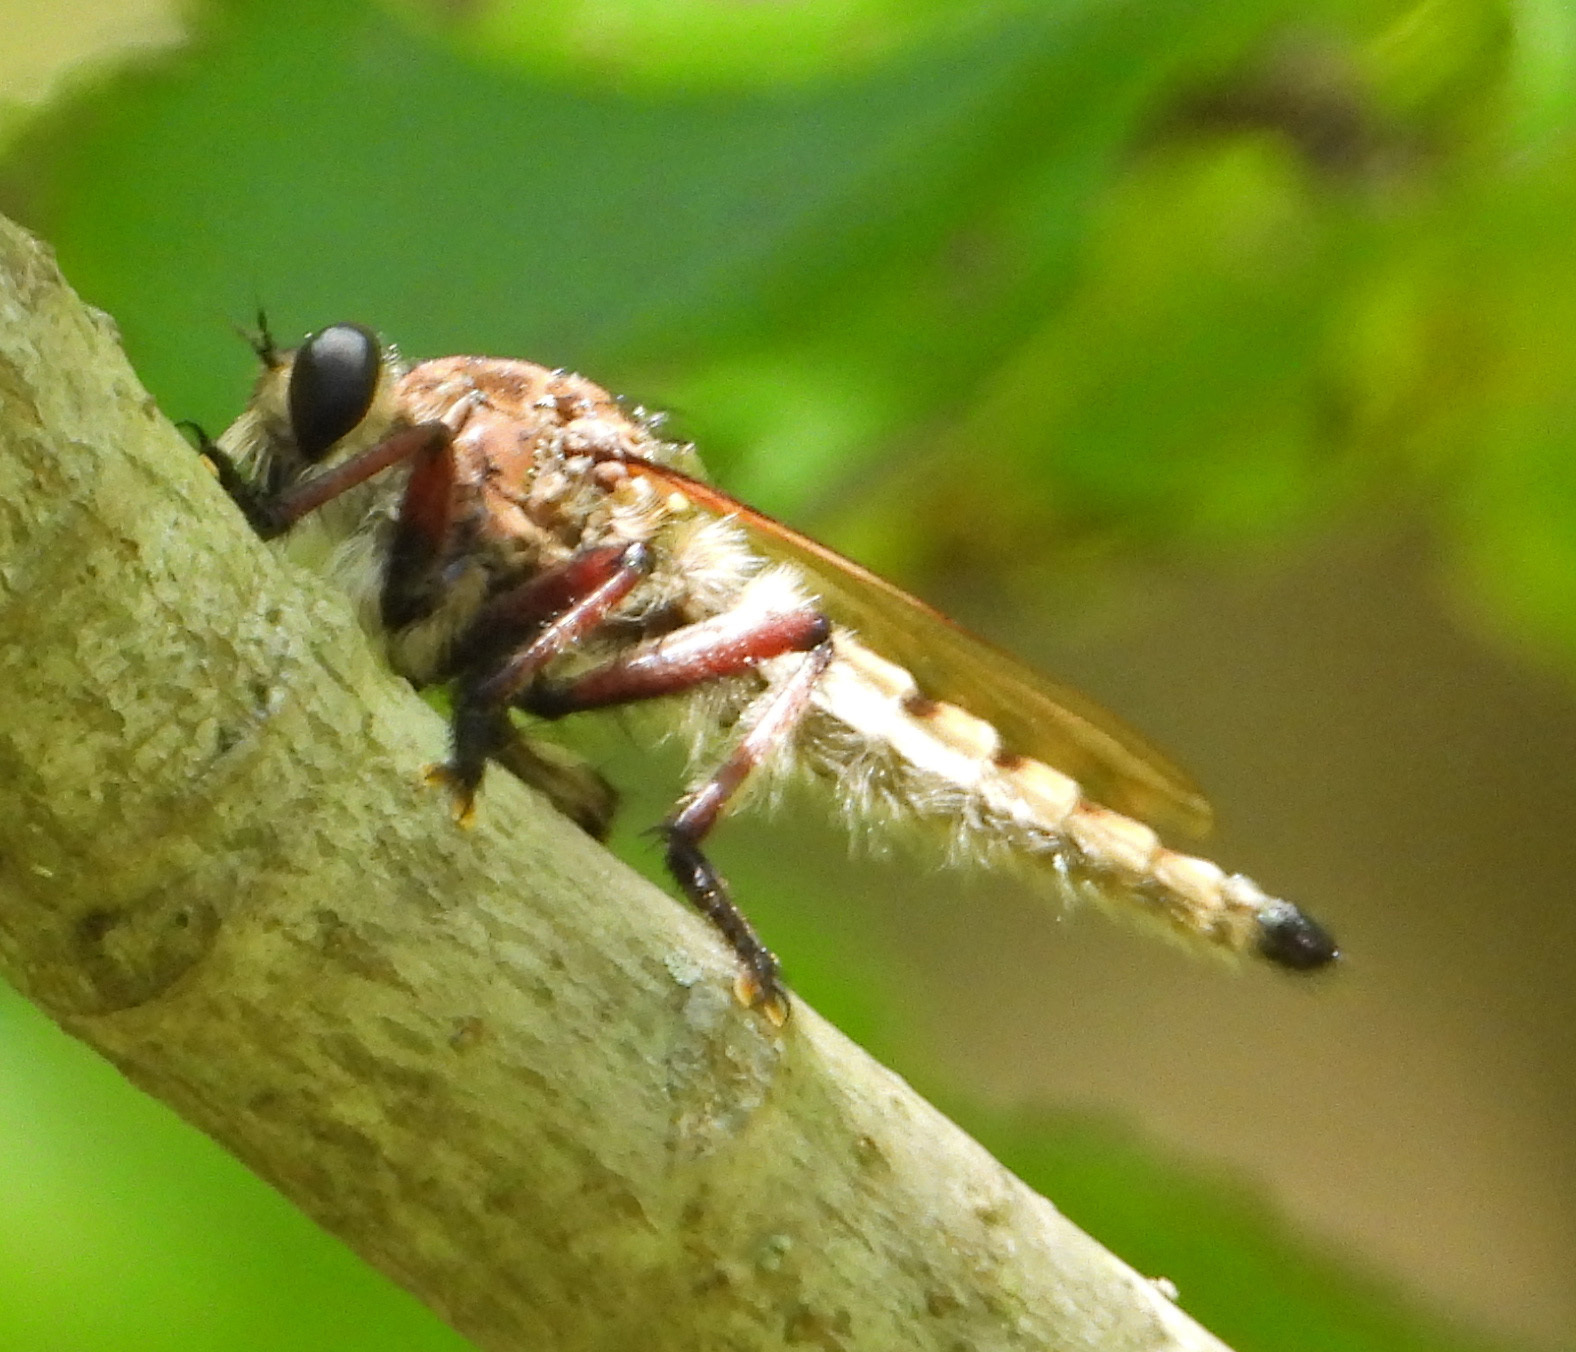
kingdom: Animalia
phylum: Arthropoda
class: Insecta
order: Diptera
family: Asilidae
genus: Promachus
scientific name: Promachus hinei
